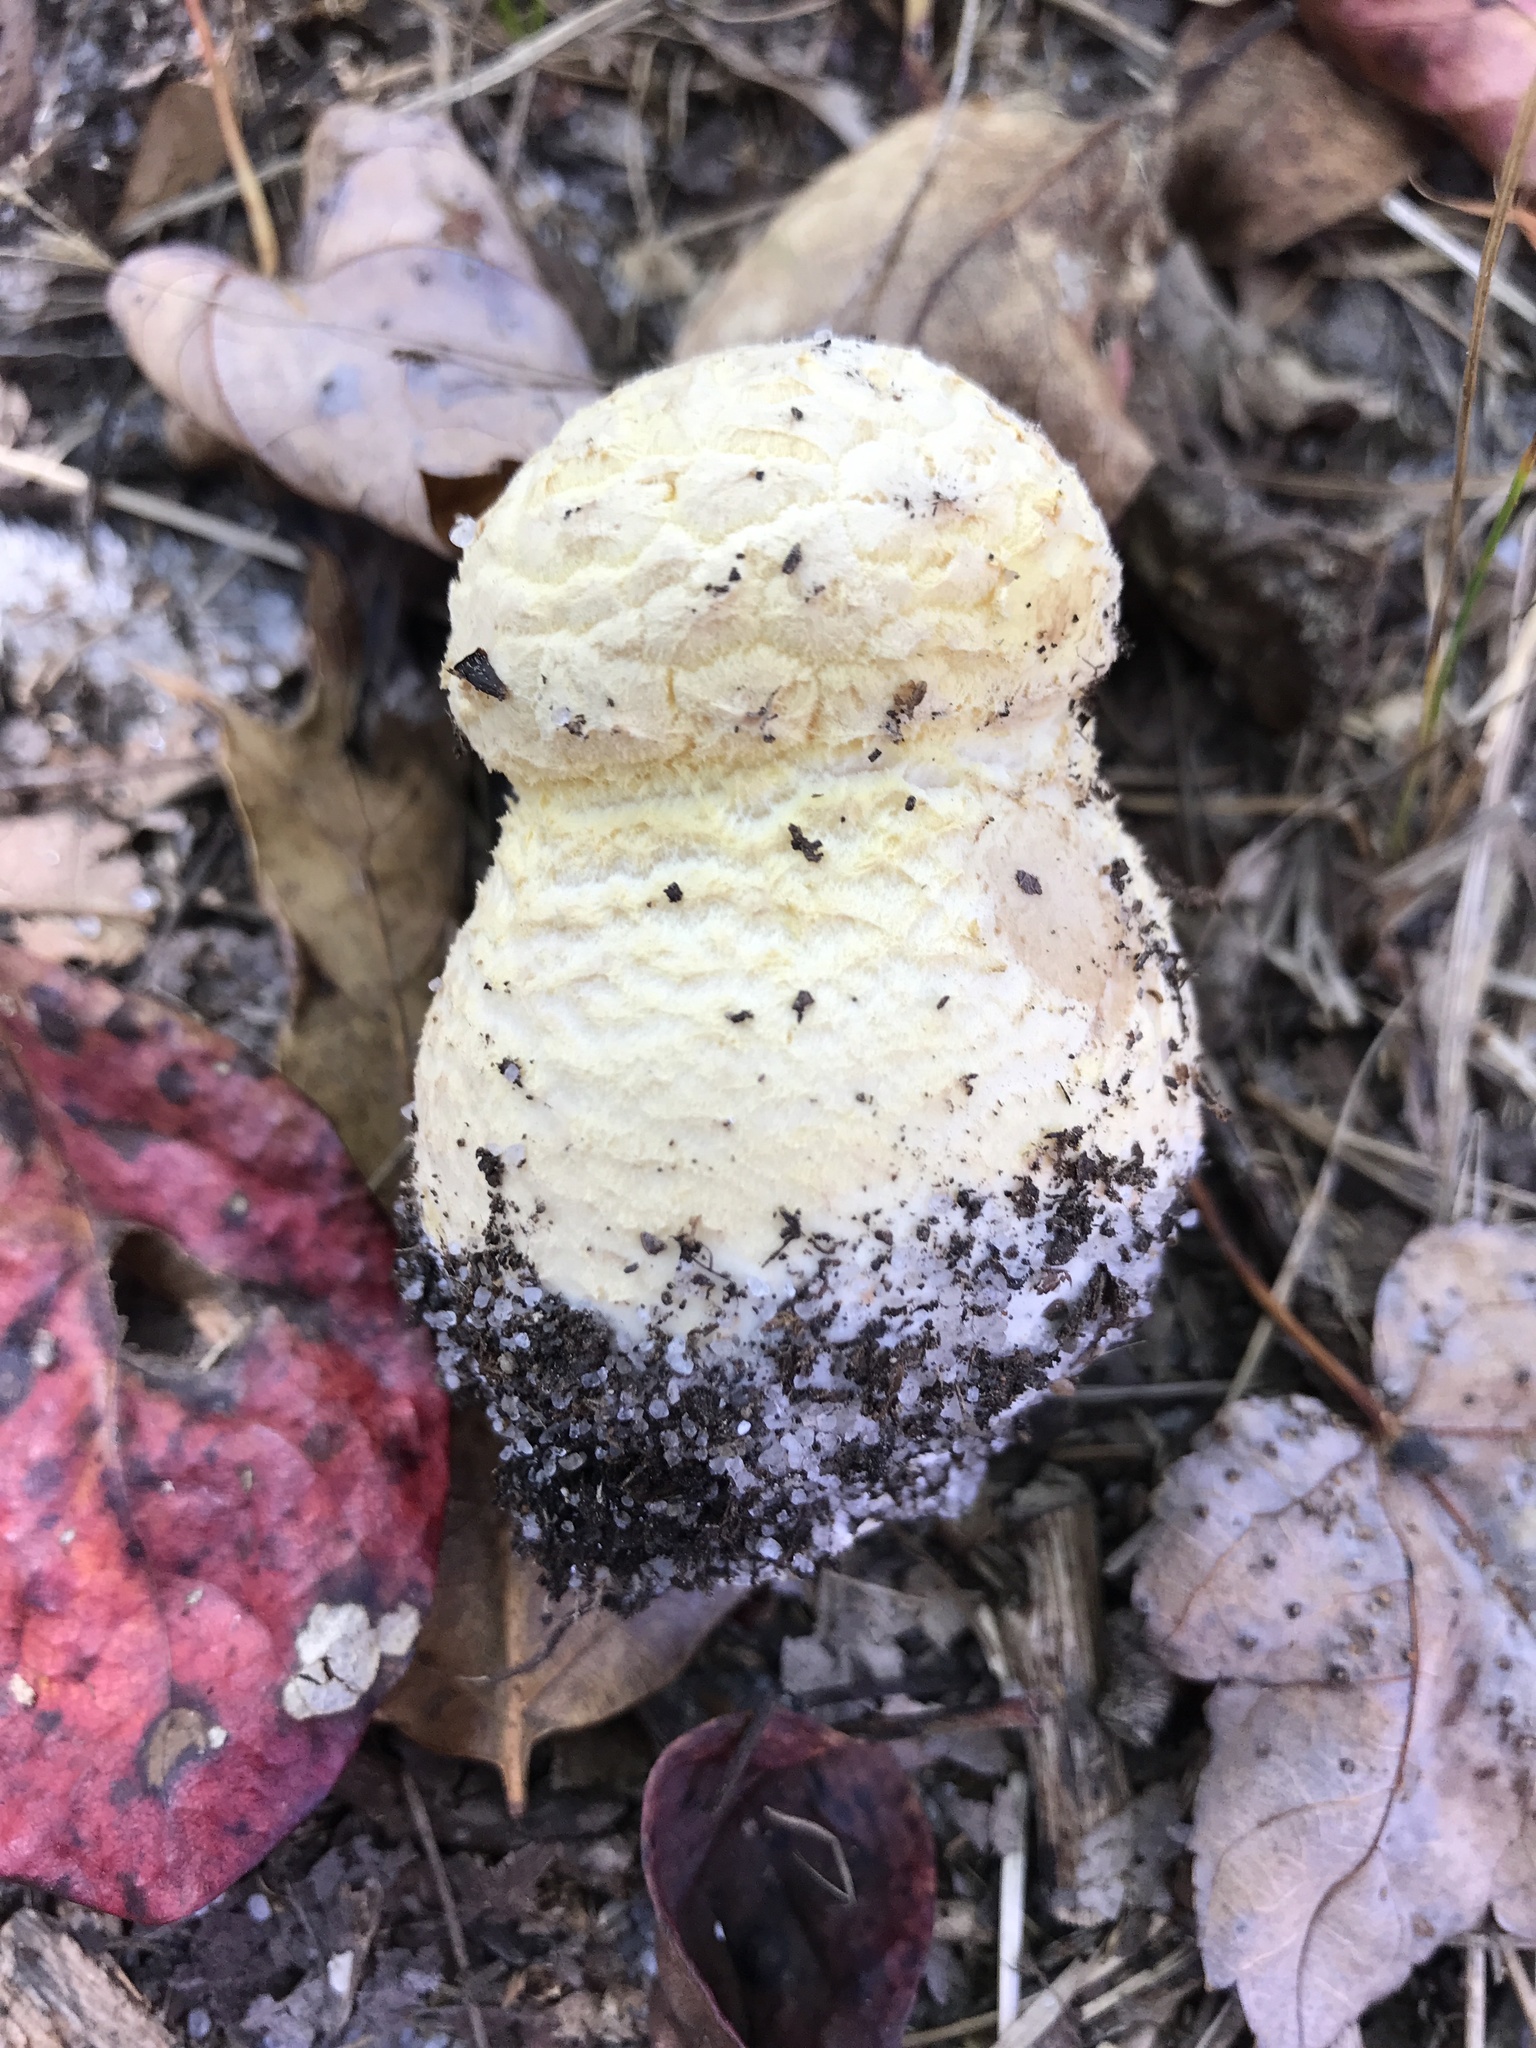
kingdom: Fungi
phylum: Basidiomycota
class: Agaricomycetes
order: Agaricales
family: Amanitaceae
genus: Amanita
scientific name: Amanita muscaria
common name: Fly agaric
